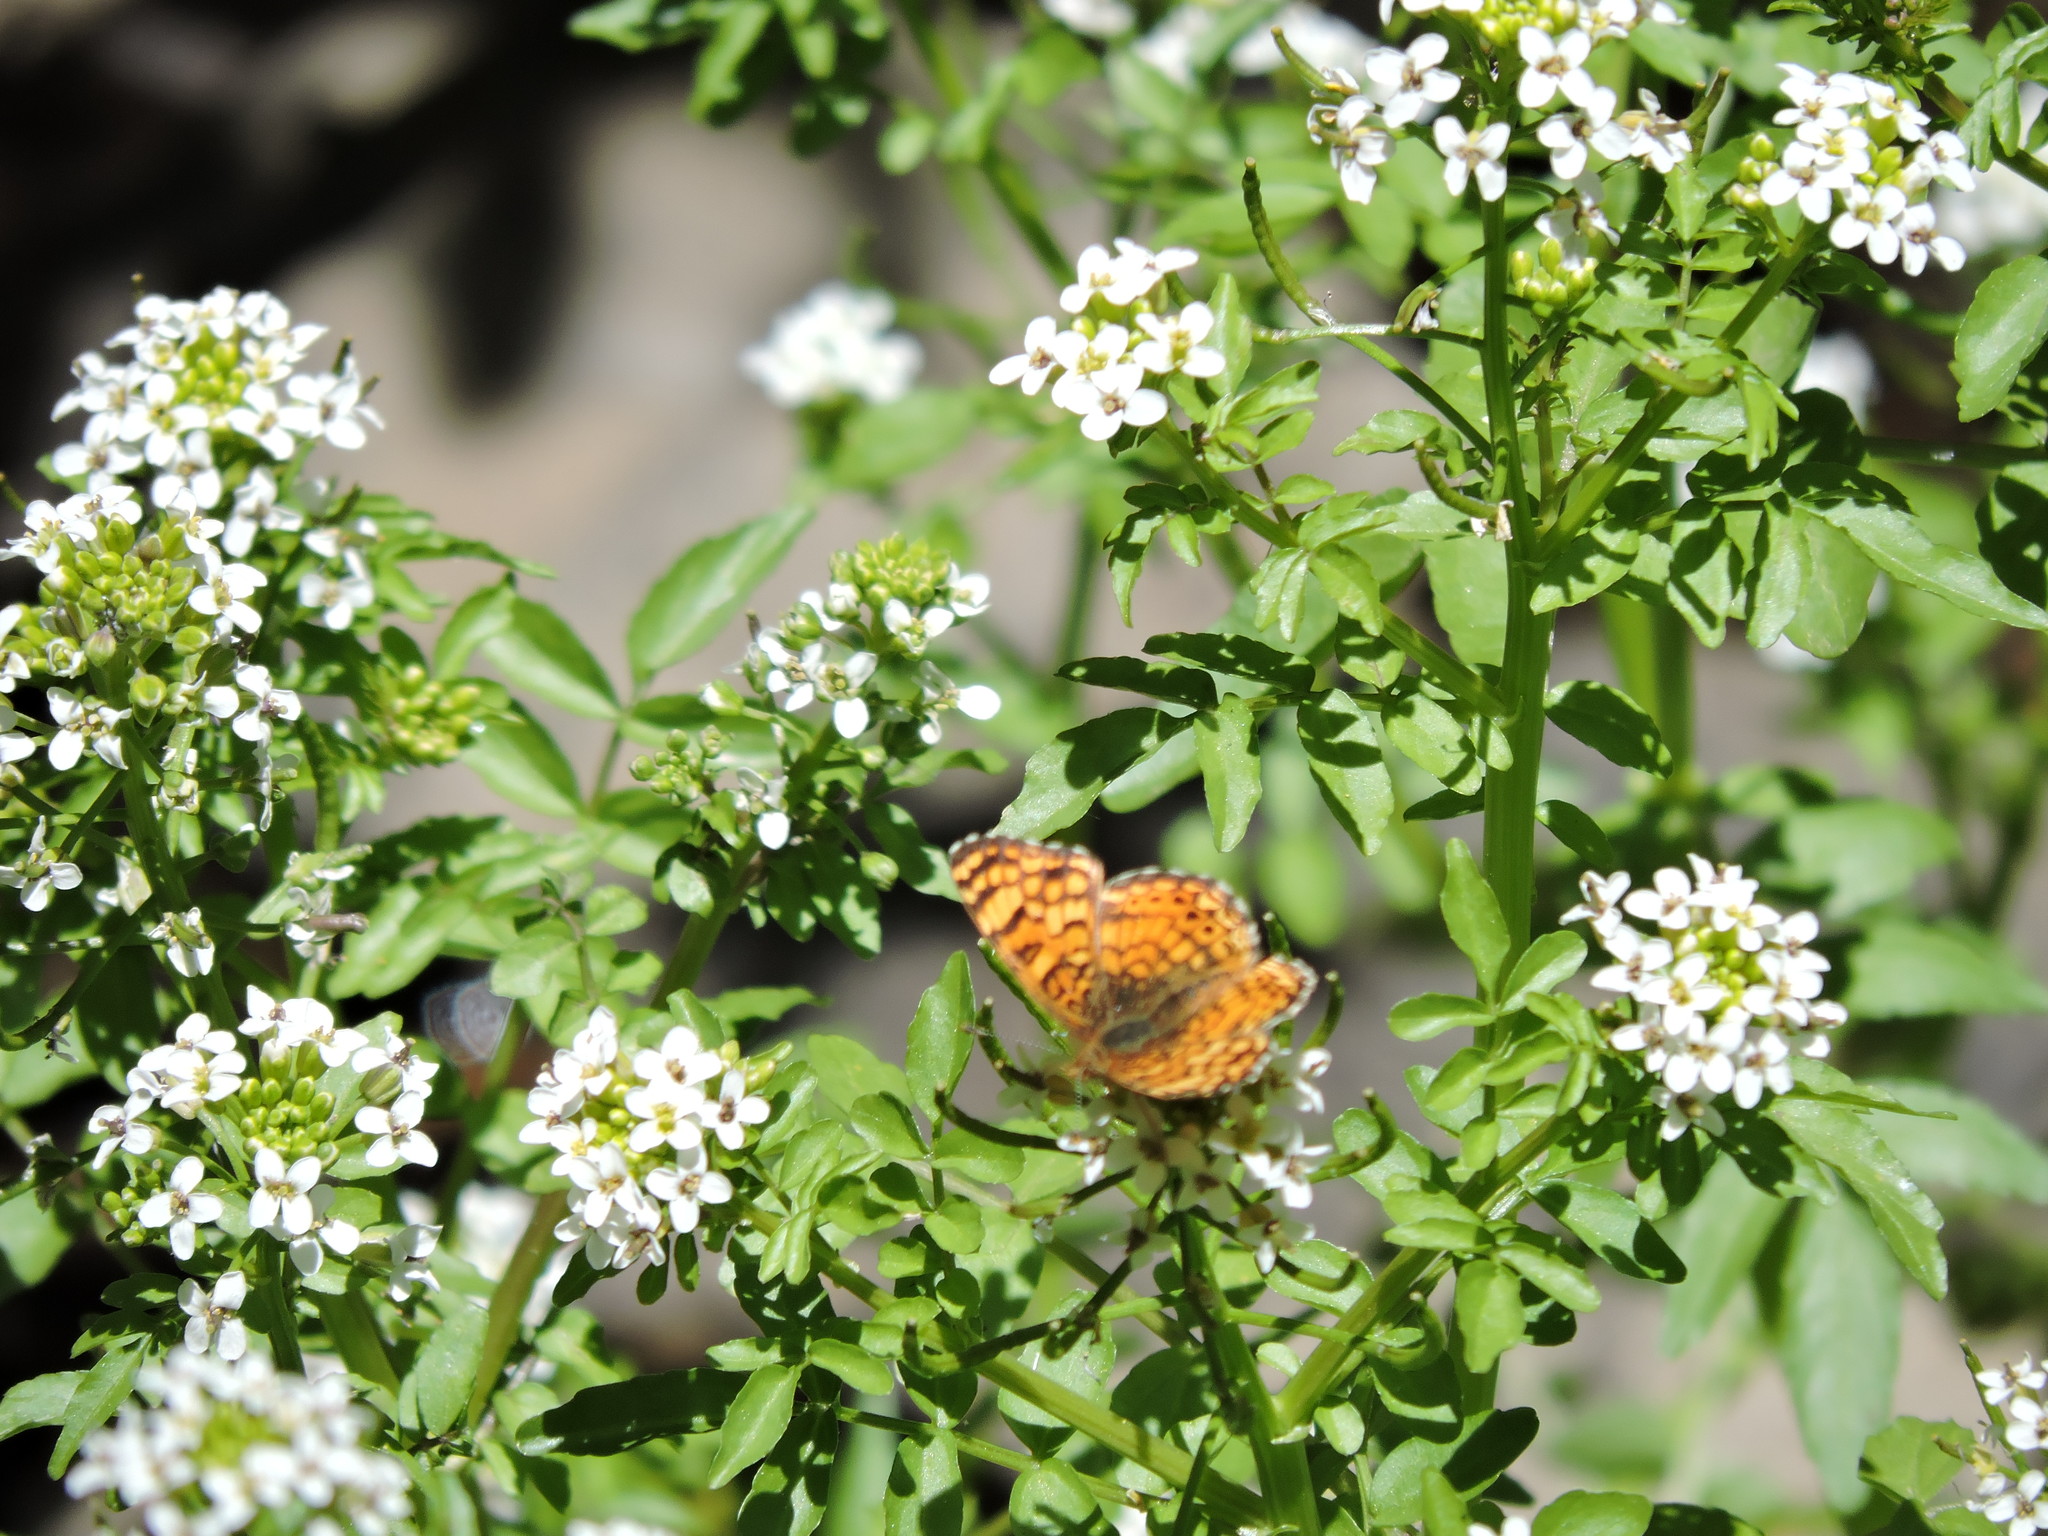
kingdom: Animalia
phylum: Arthropoda
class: Insecta
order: Lepidoptera
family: Nymphalidae
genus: Eresia
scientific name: Eresia aveyrona
